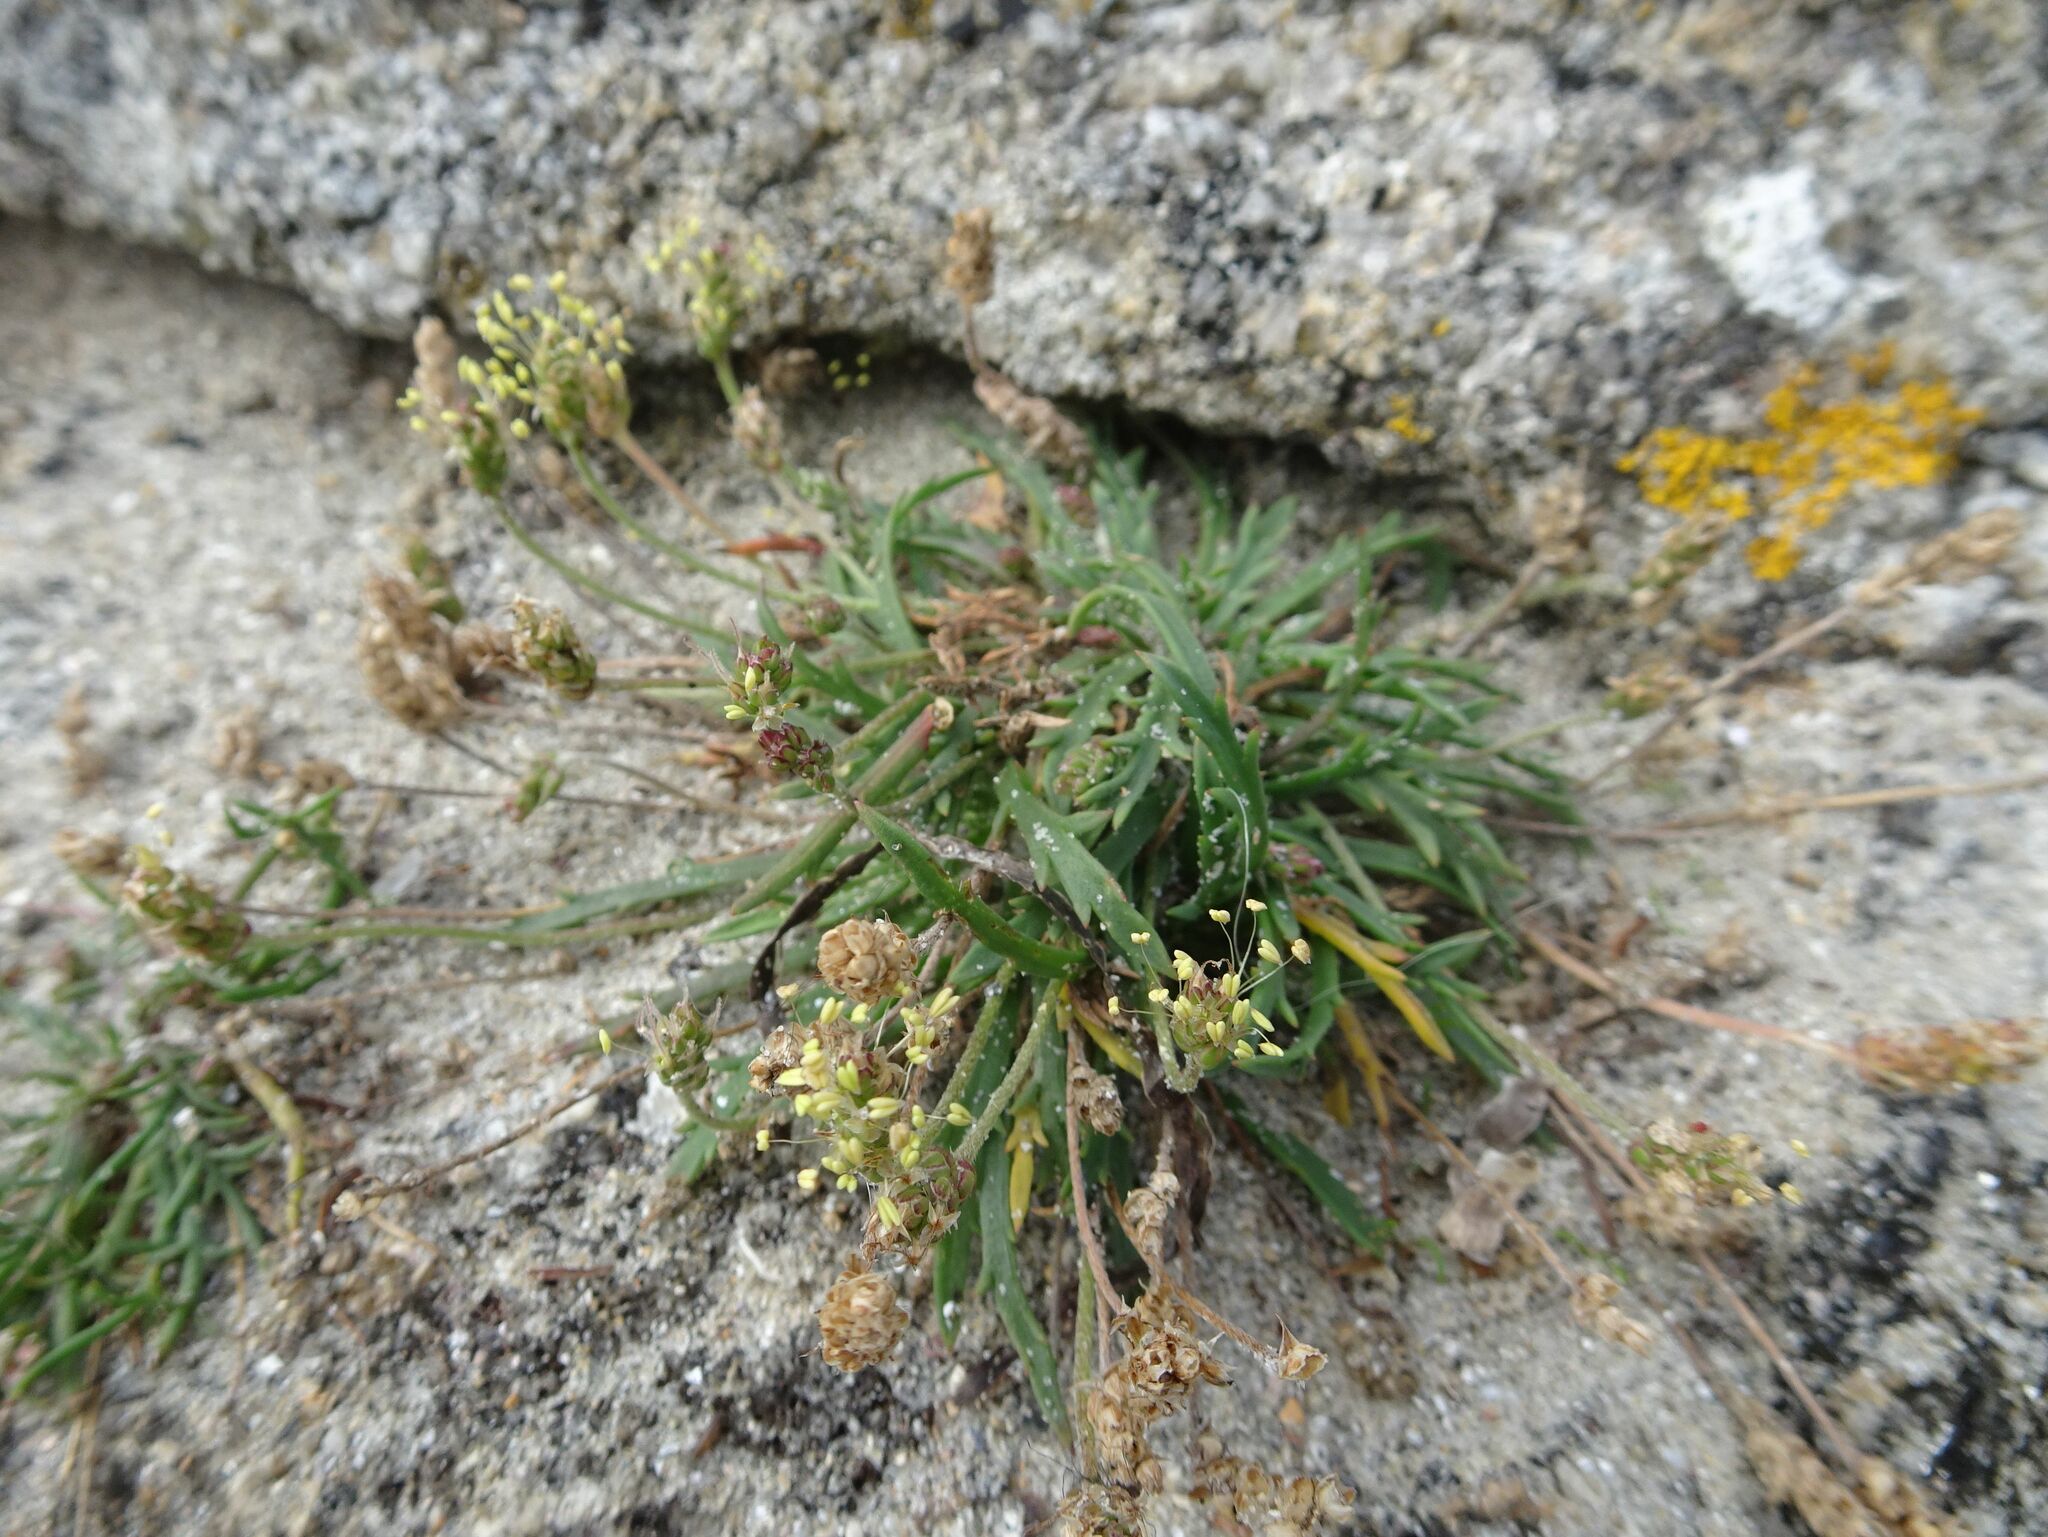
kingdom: Plantae
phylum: Tracheophyta
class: Magnoliopsida
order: Lamiales
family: Plantaginaceae
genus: Plantago
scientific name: Plantago coronopus
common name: Buck's-horn plantain
